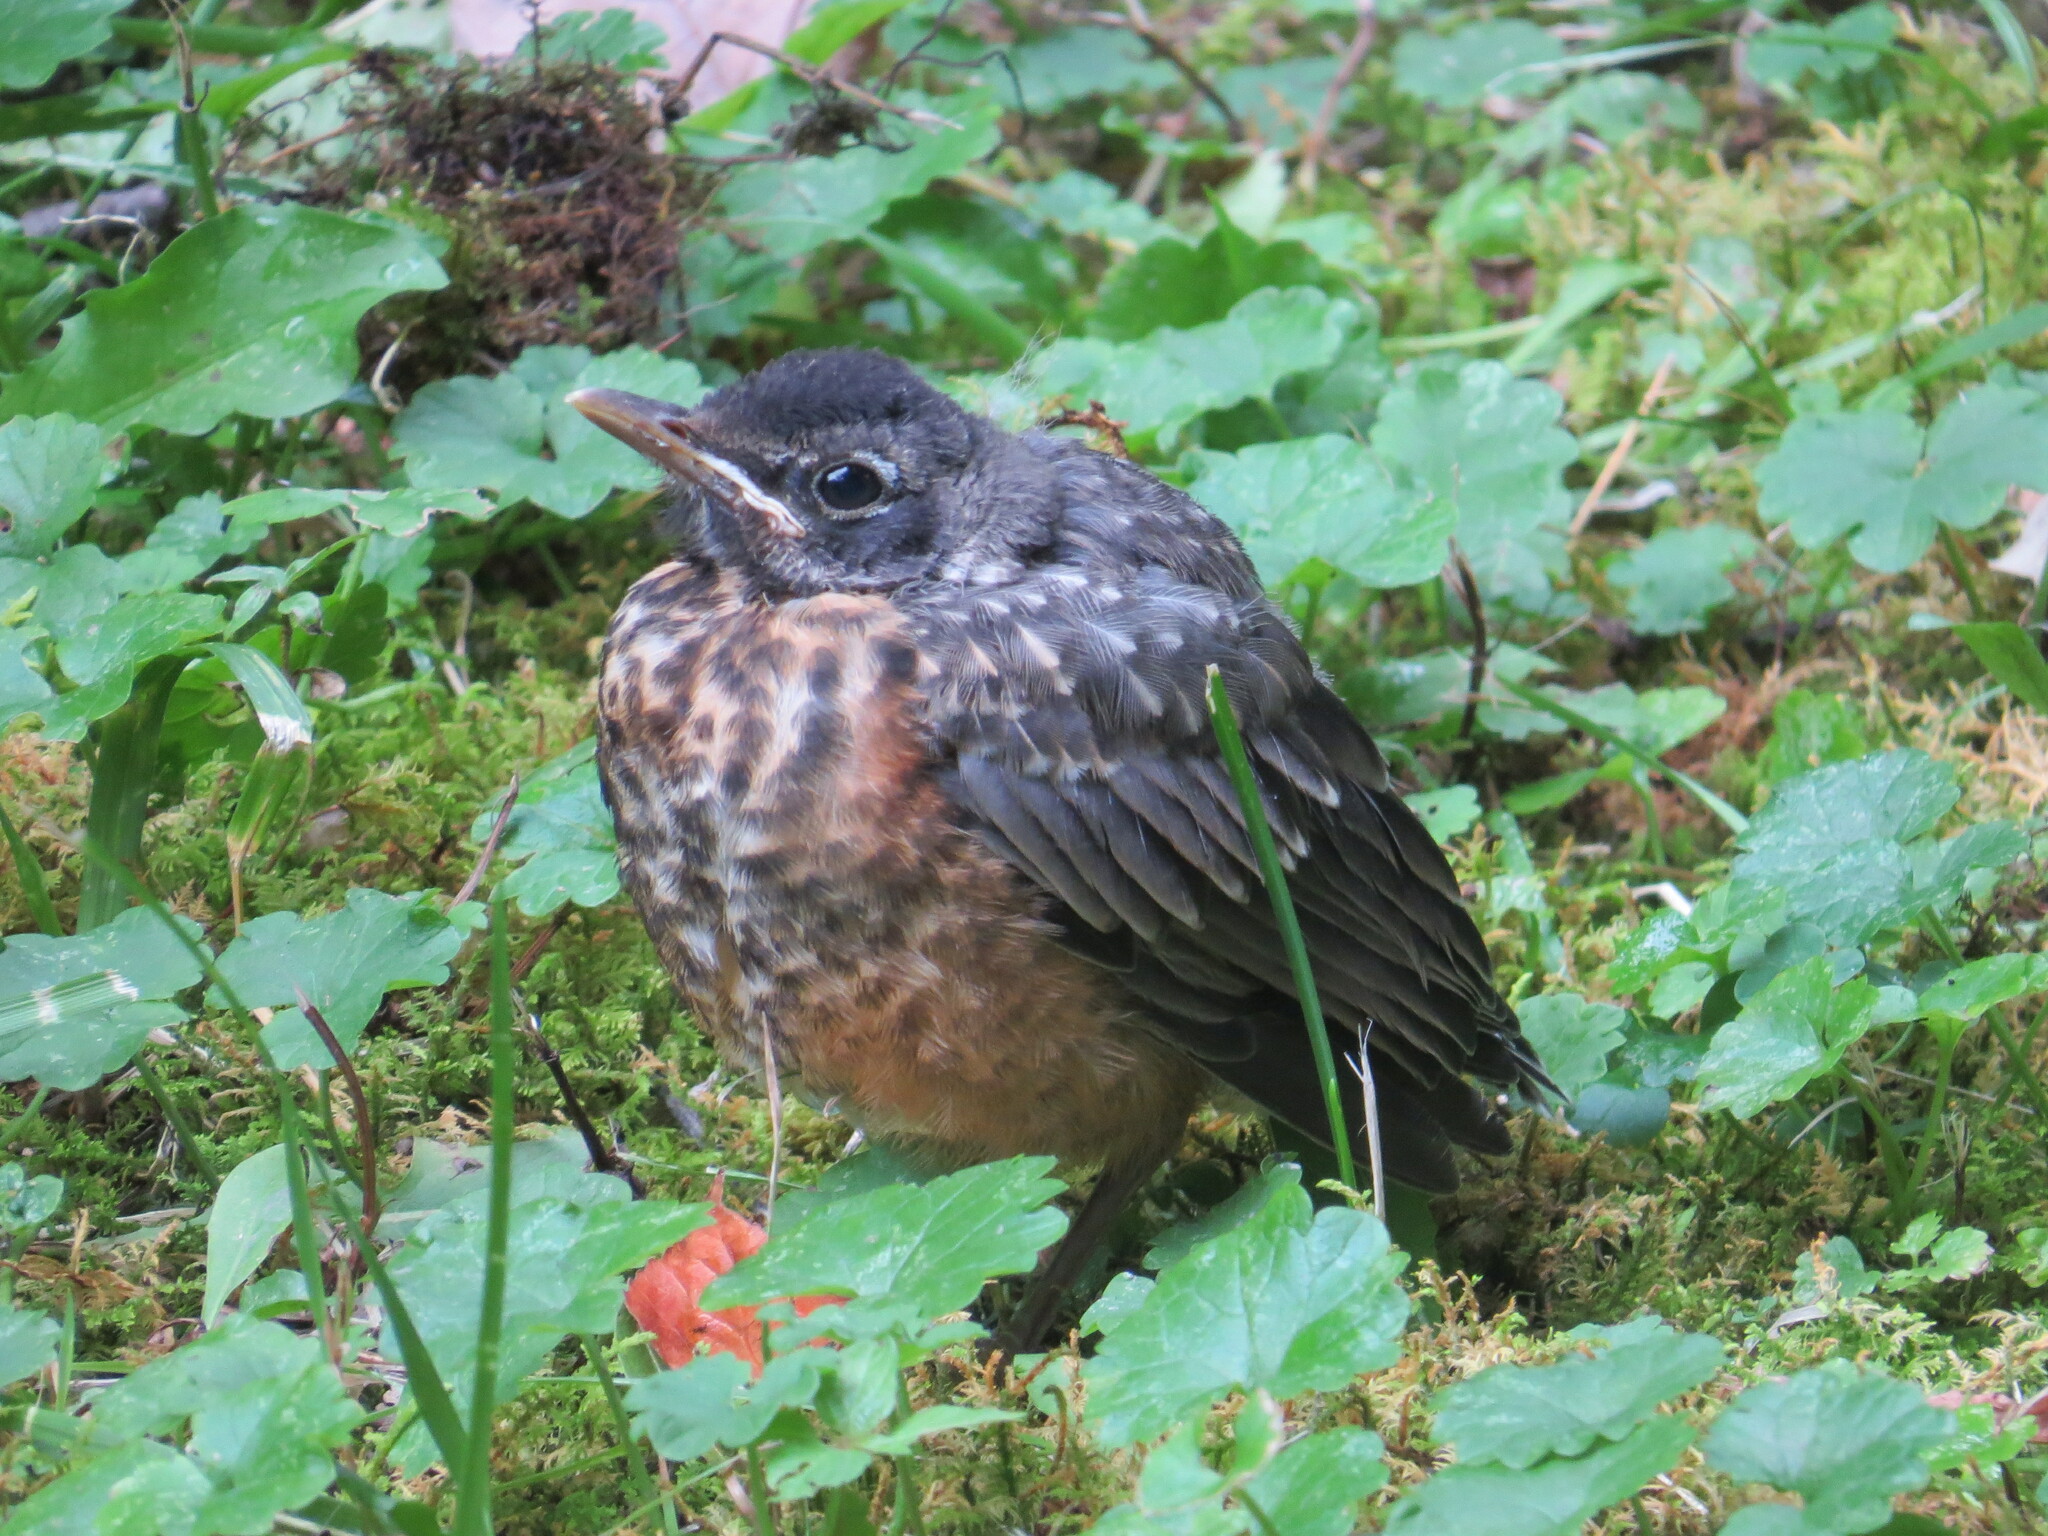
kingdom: Animalia
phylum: Chordata
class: Aves
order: Passeriformes
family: Turdidae
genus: Turdus
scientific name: Turdus migratorius
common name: American robin
